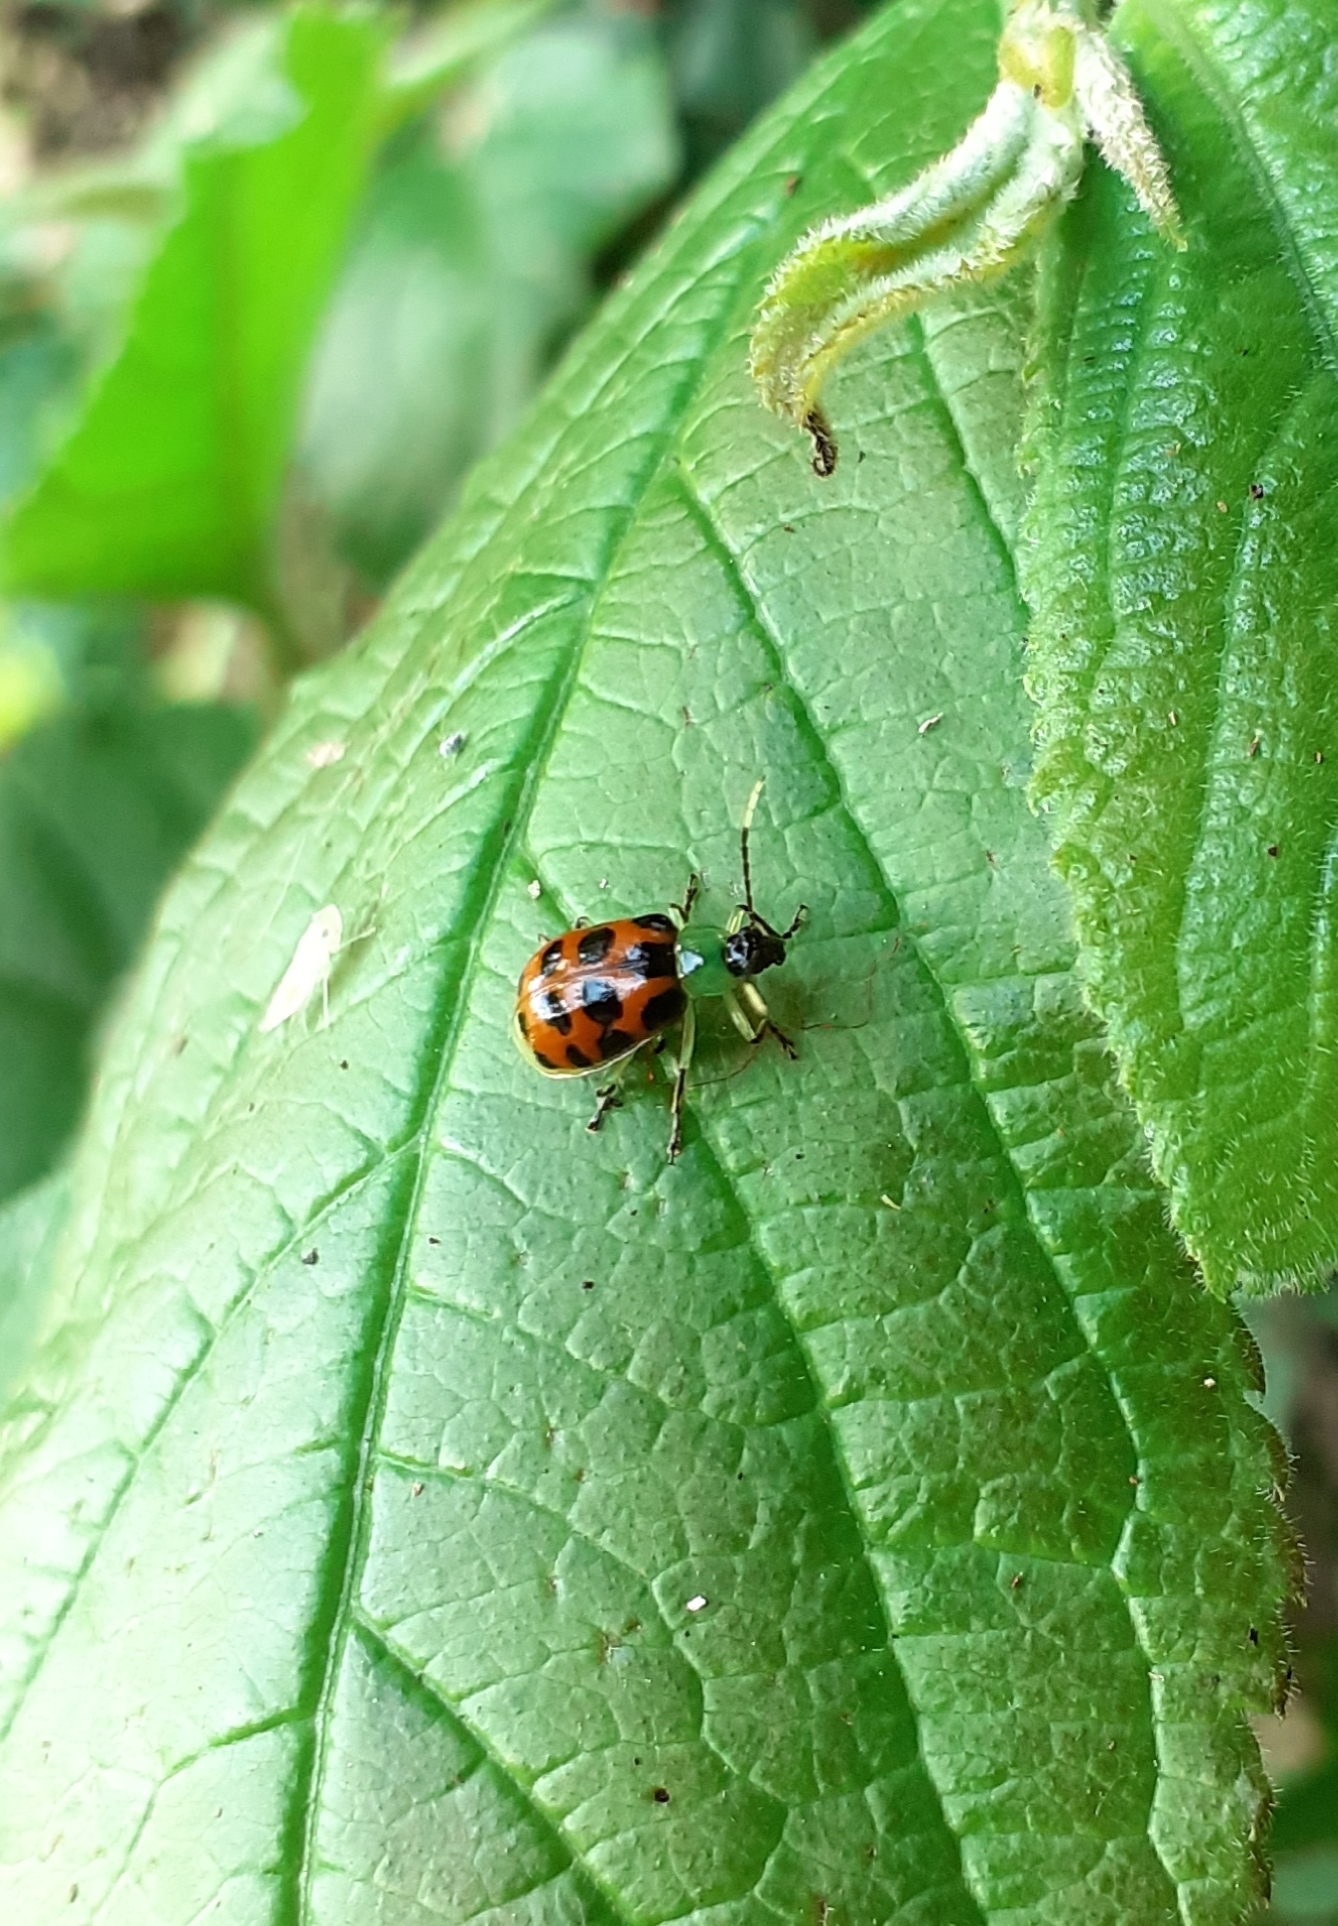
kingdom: Animalia
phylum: Arthropoda
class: Insecta
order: Coleoptera
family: Chrysomelidae
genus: Diabrotica
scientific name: Diabrotica limitata
